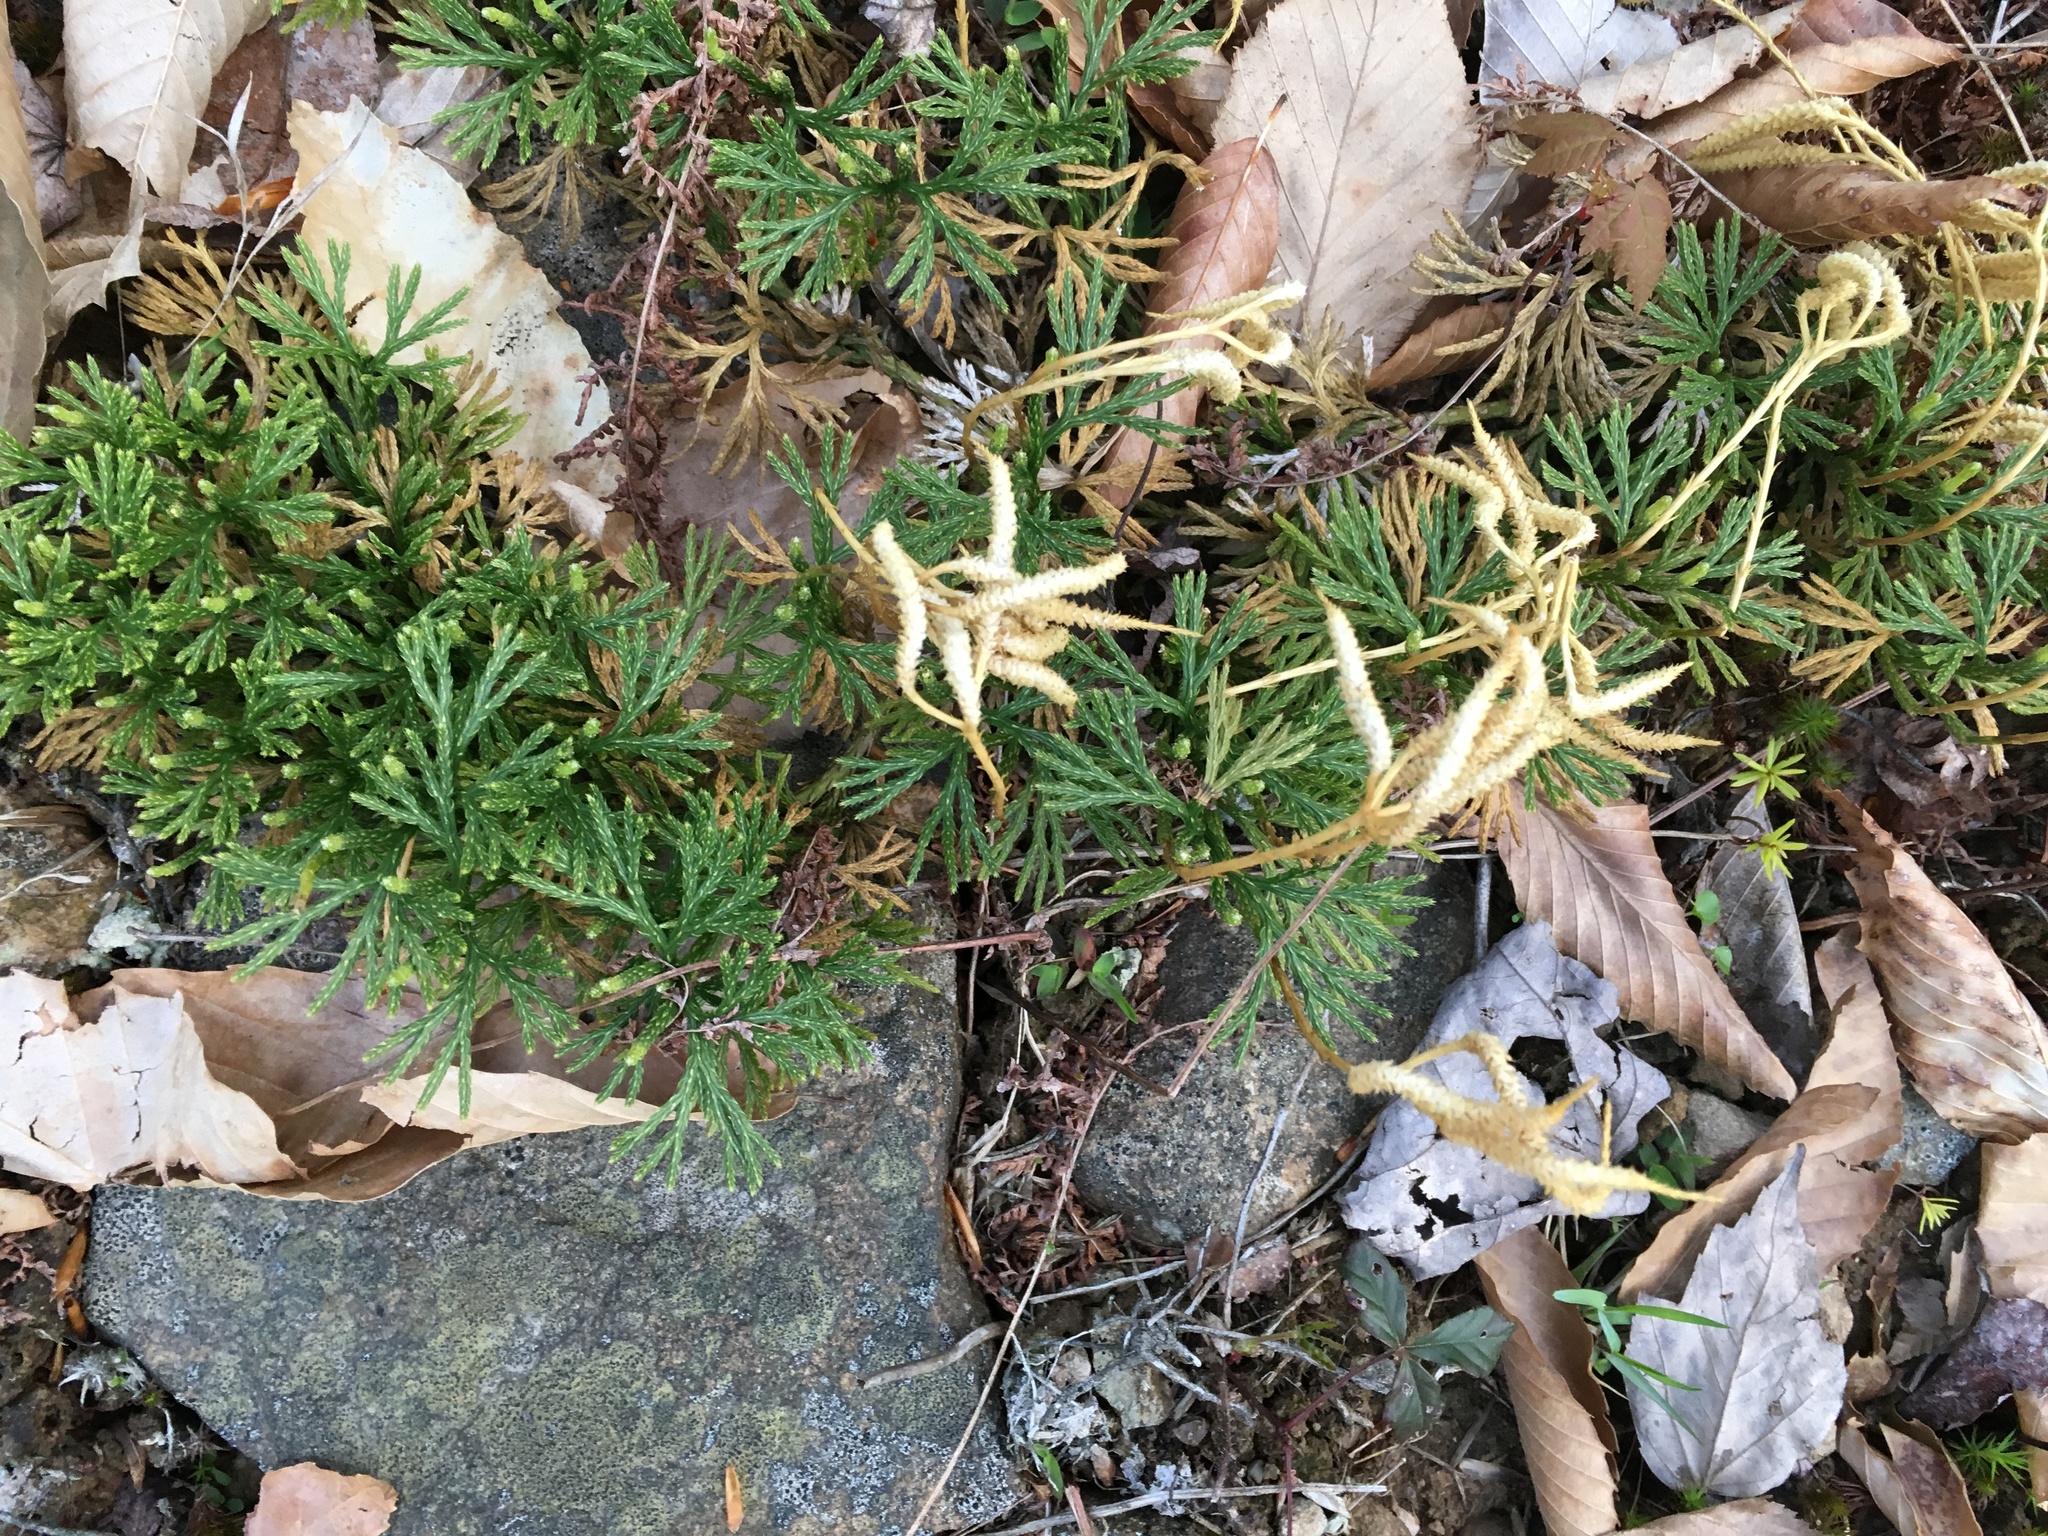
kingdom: Plantae
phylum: Tracheophyta
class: Lycopodiopsida
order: Lycopodiales
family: Lycopodiaceae
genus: Diphasiastrum
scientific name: Diphasiastrum tristachyum
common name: Blue ground-cedar
